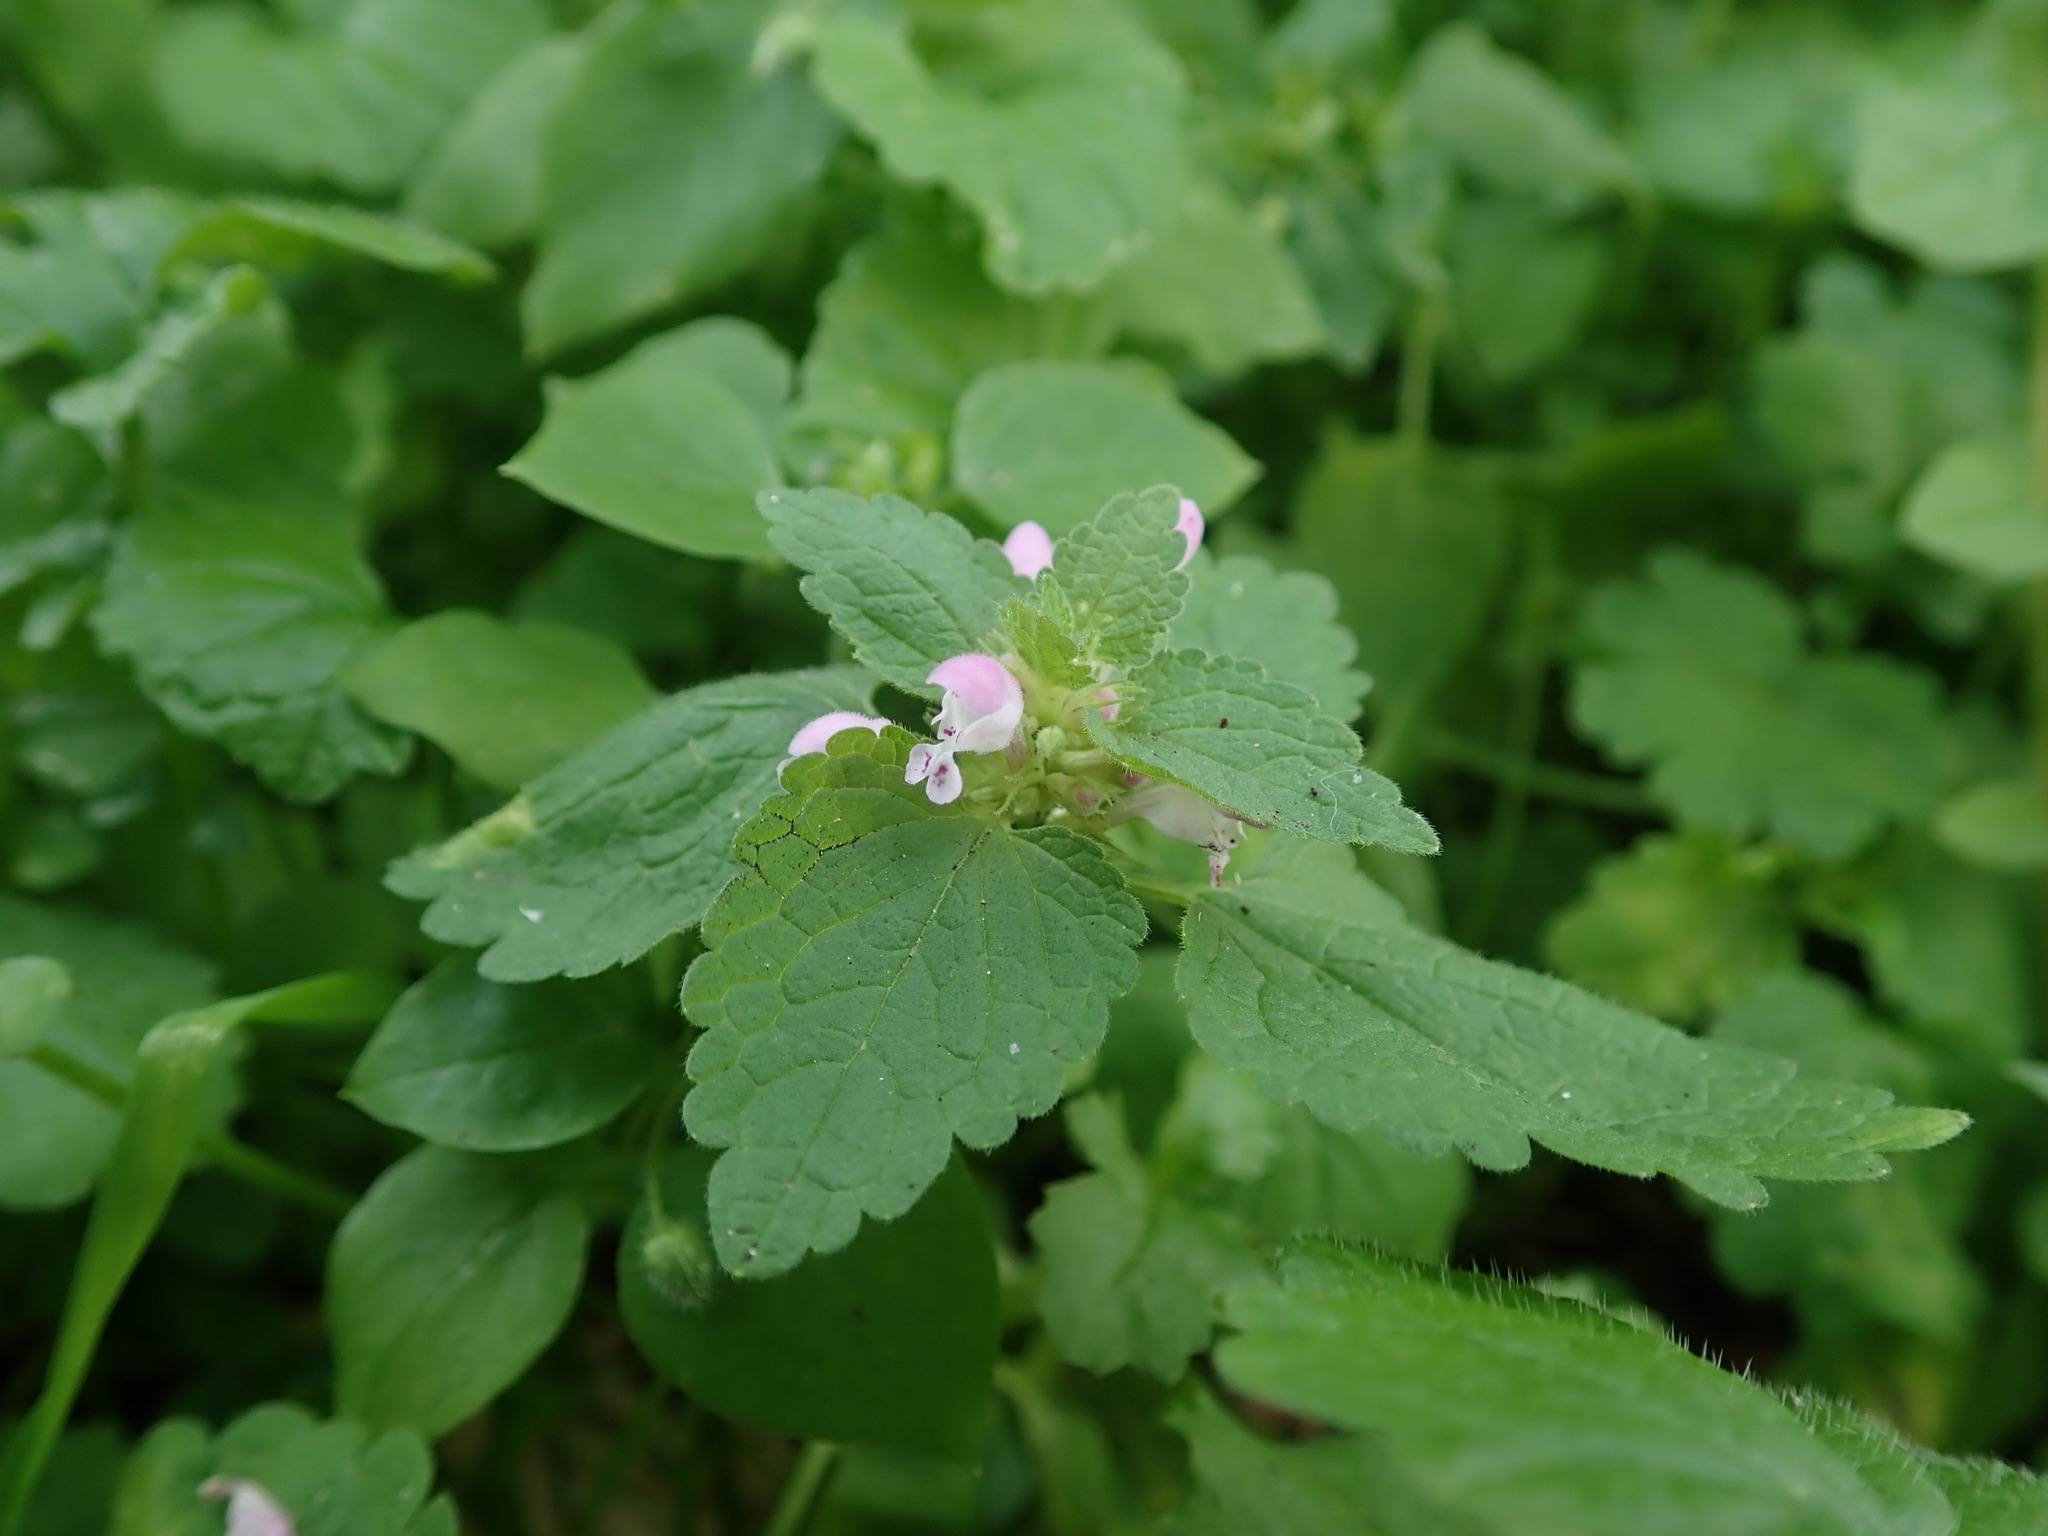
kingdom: Plantae
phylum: Tracheophyta
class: Magnoliopsida
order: Lamiales
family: Lamiaceae
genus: Lamium
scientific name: Lamium purpureum
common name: Red dead-nettle
